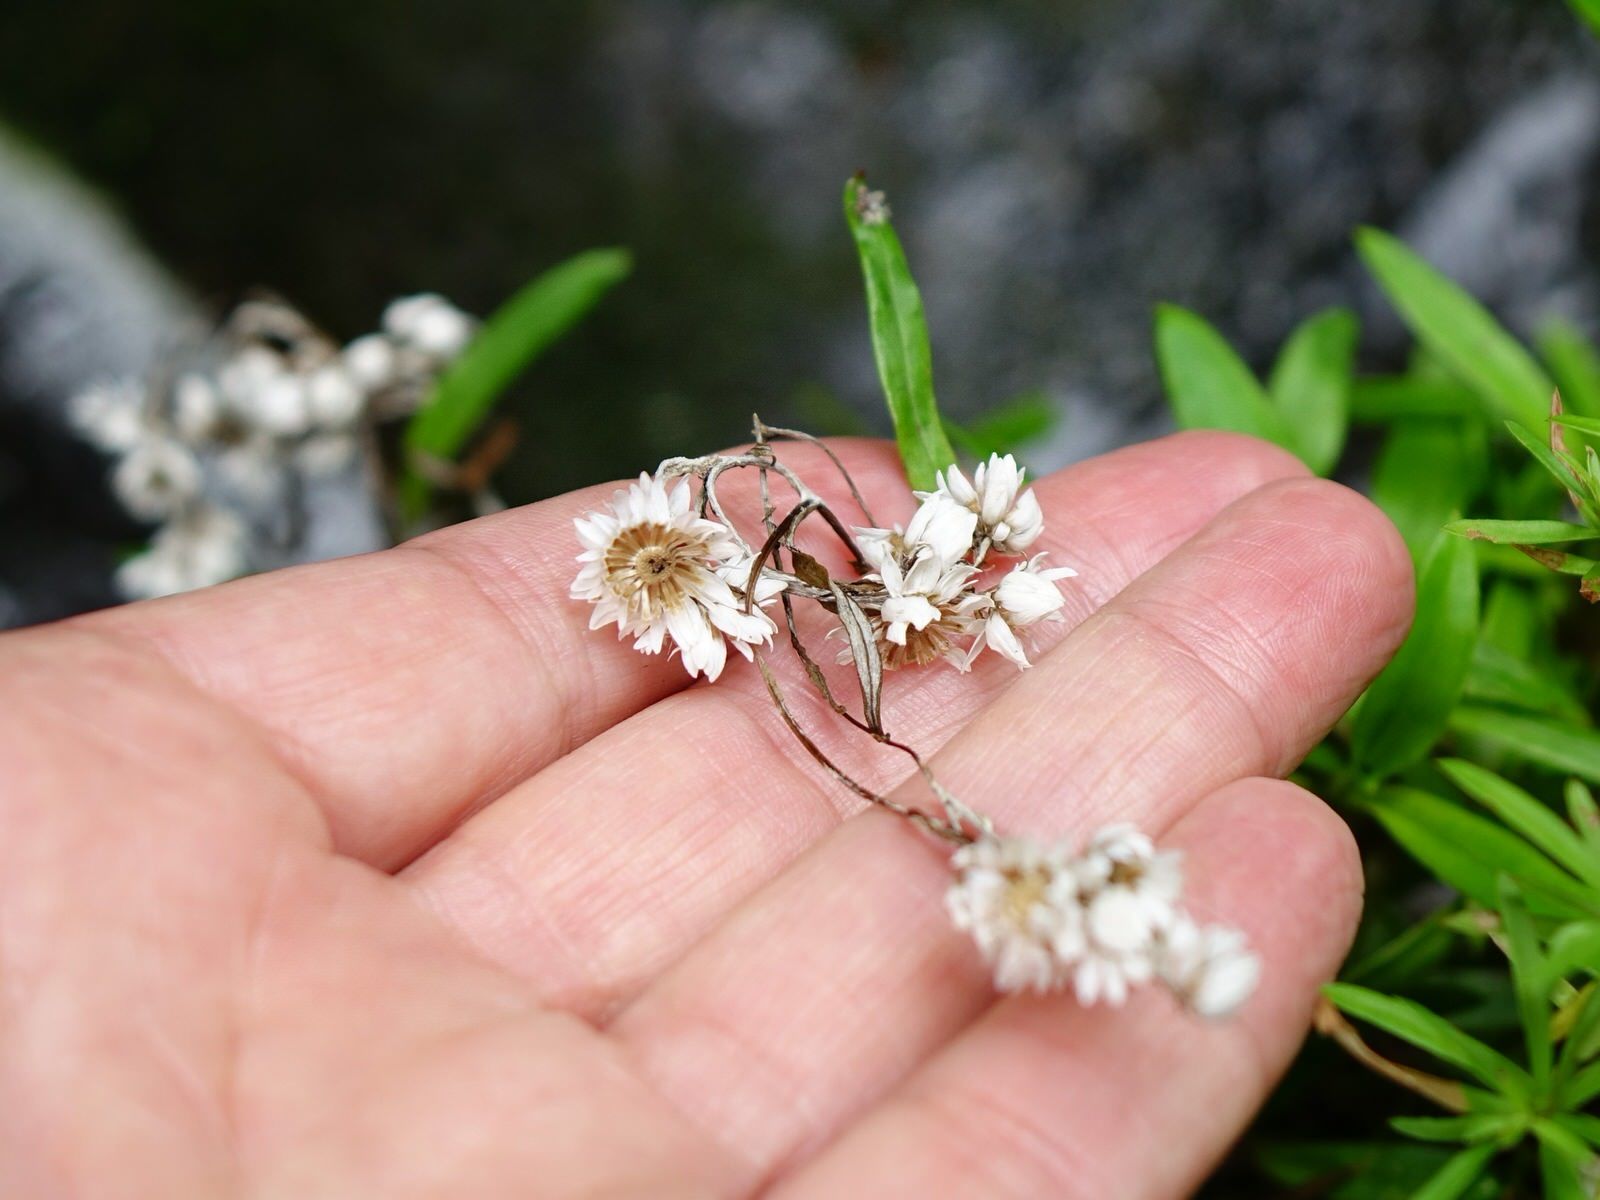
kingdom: Plantae
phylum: Tracheophyta
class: Magnoliopsida
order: Asterales
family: Asteraceae
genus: Anaphalioides
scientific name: Anaphalioides trinervis
